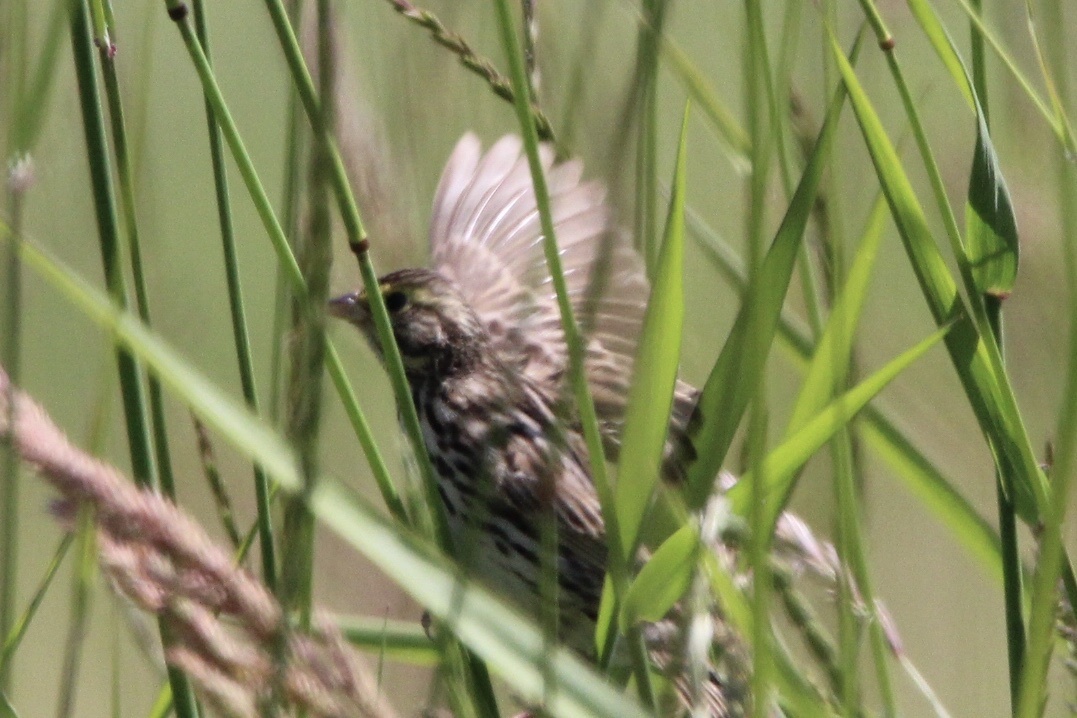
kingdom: Animalia
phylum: Chordata
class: Aves
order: Passeriformes
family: Passerellidae
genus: Passerculus
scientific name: Passerculus sandwichensis
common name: Savannah sparrow
